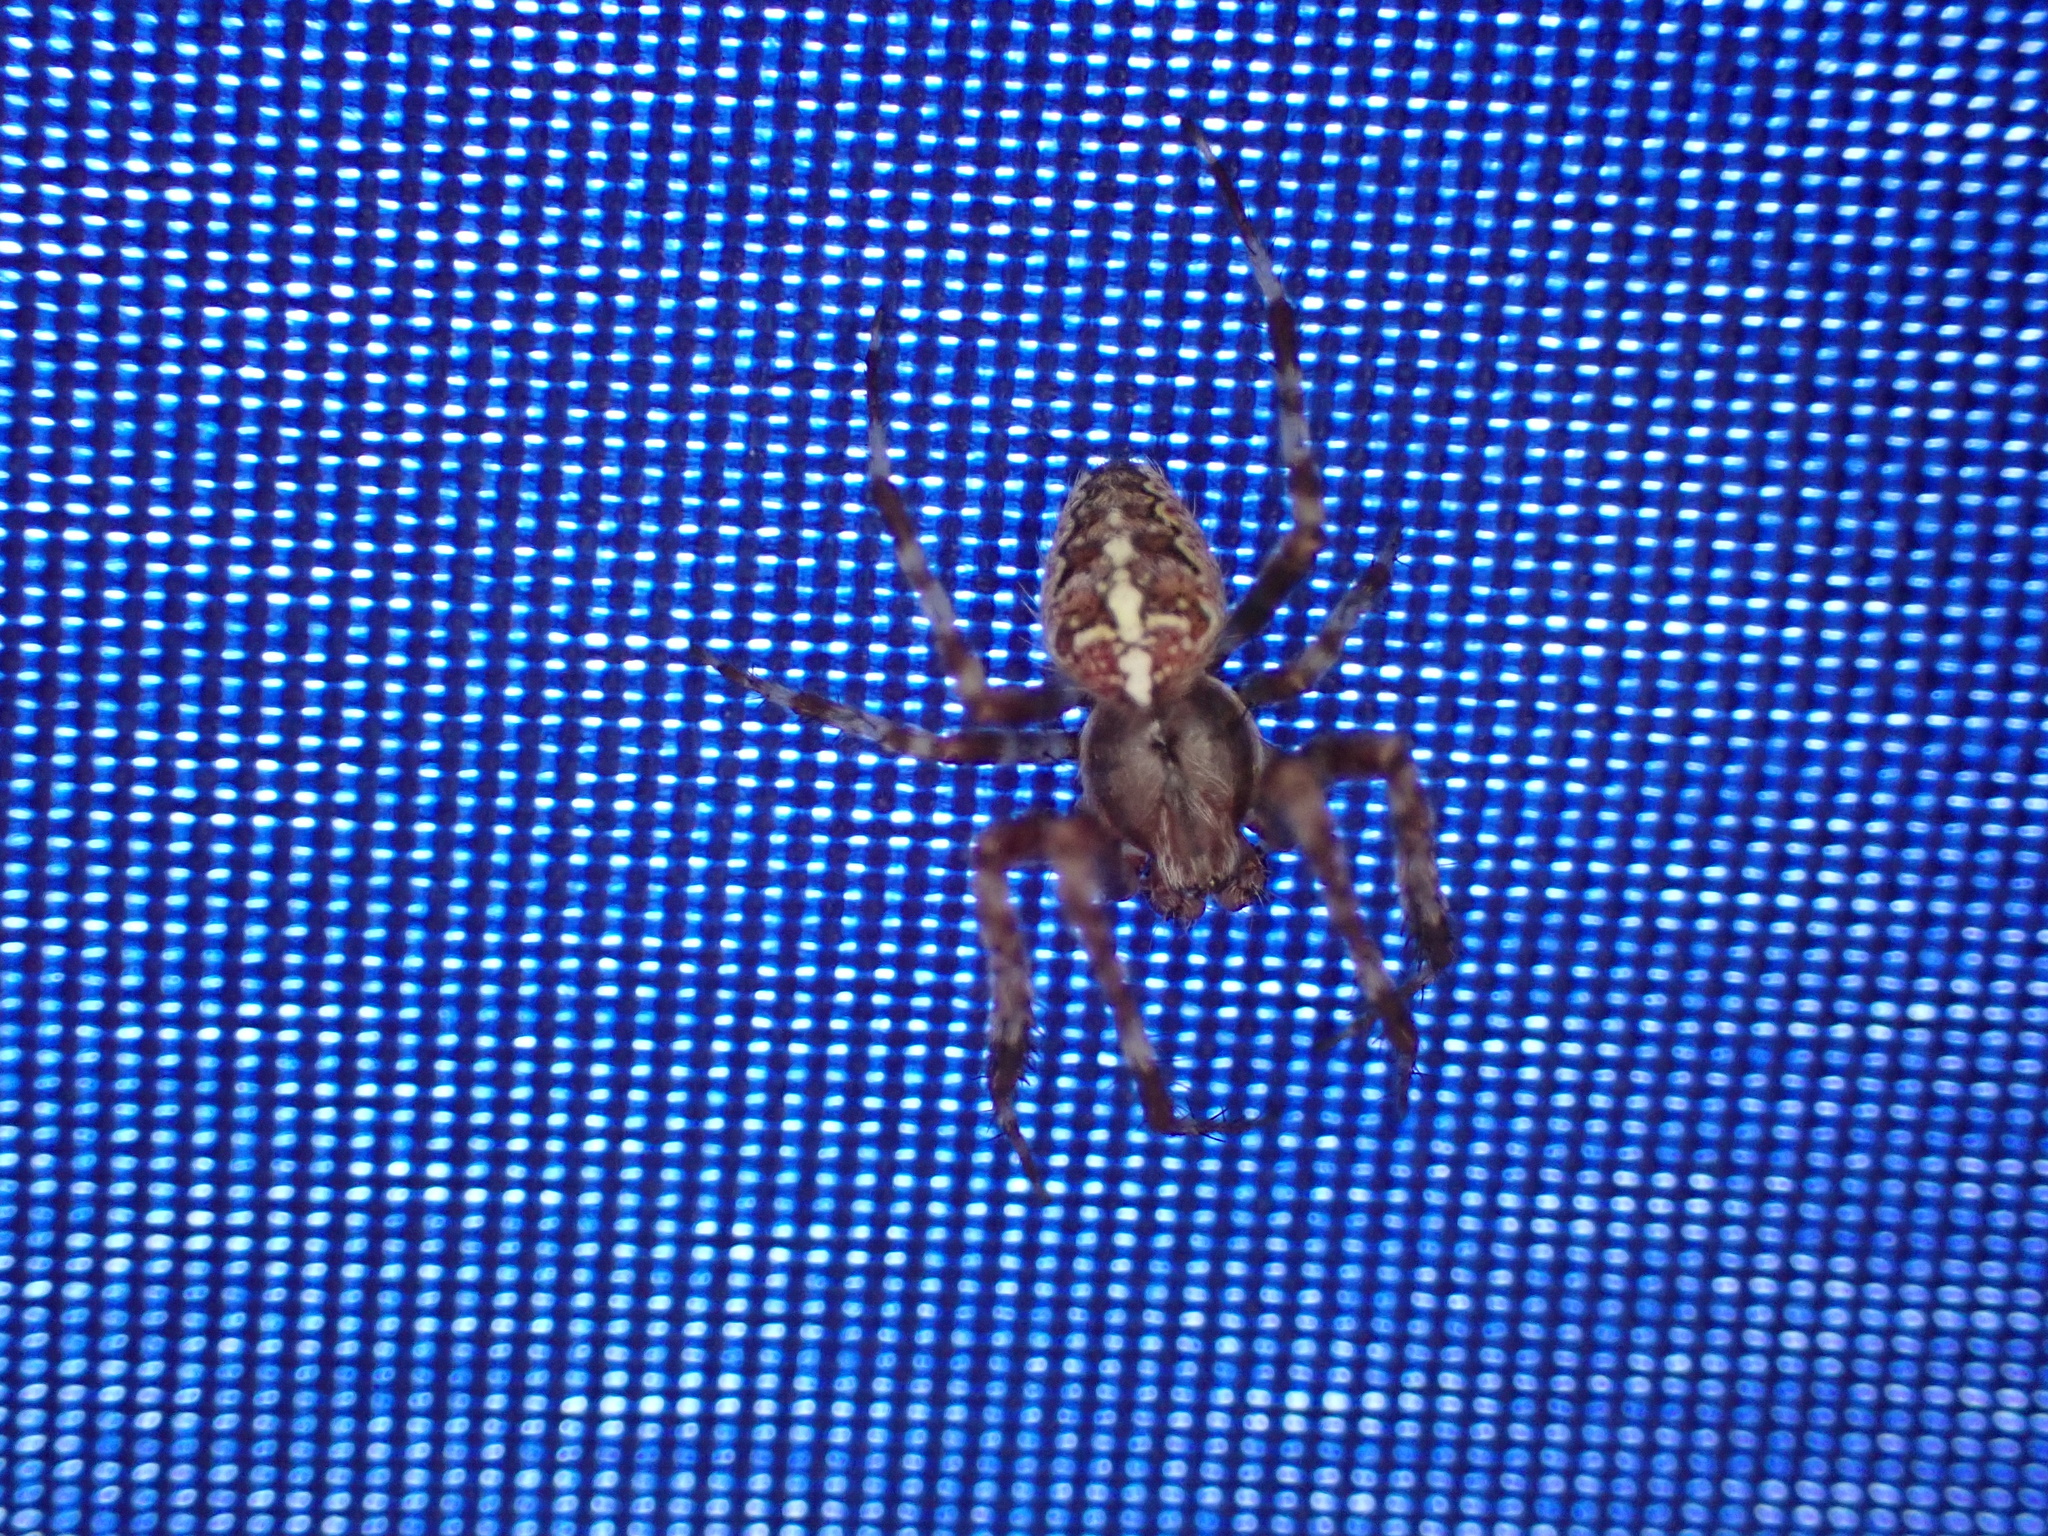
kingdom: Animalia
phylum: Arthropoda
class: Arachnida
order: Araneae
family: Araneidae
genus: Araneus
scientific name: Araneus diadematus
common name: Cross orbweaver
